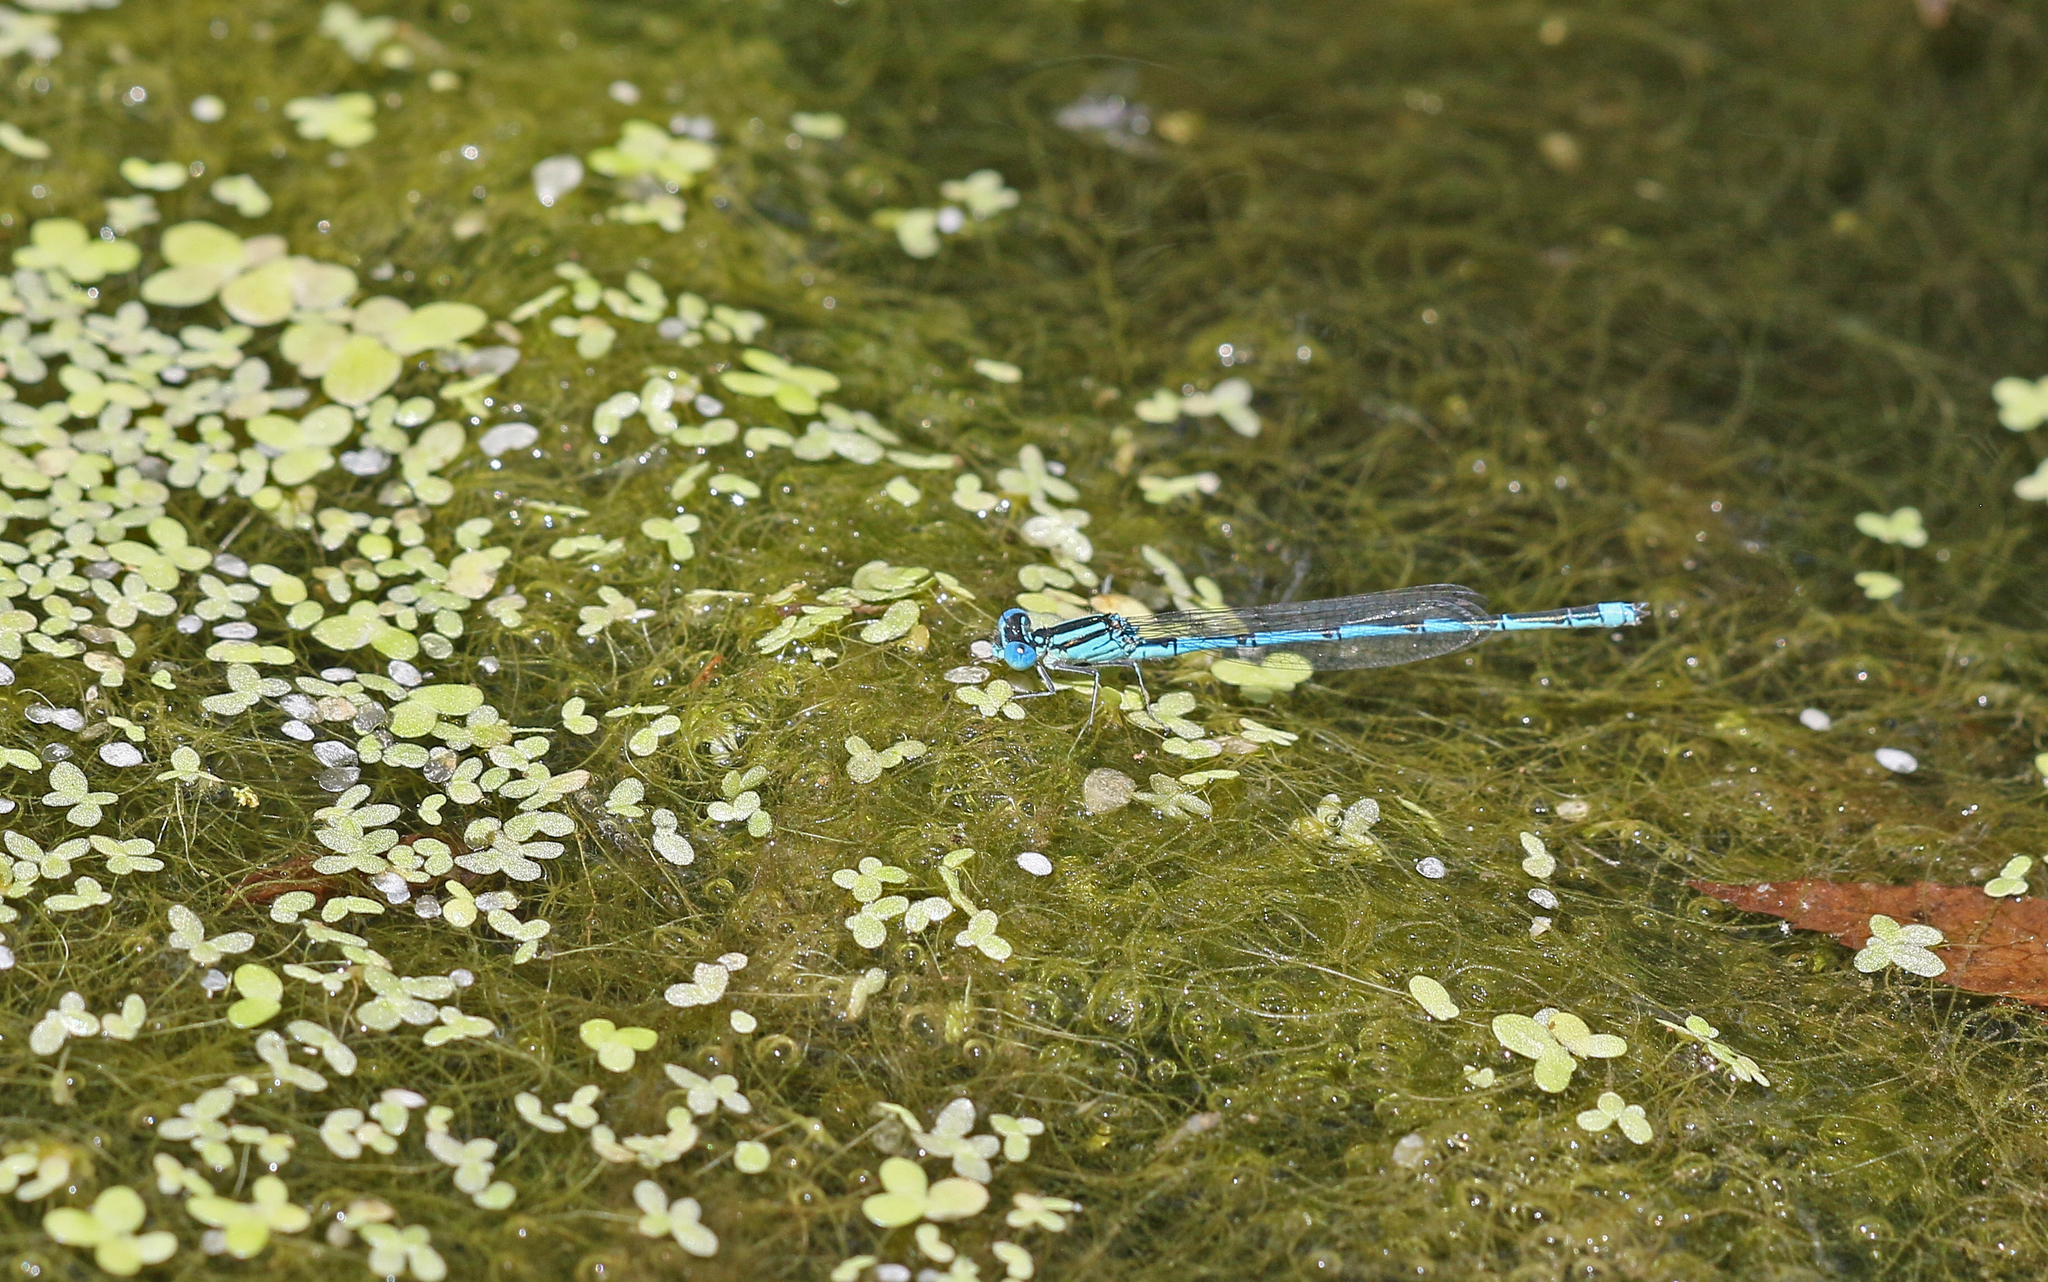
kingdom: Animalia
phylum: Arthropoda
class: Insecta
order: Odonata
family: Coenagrionidae
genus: Erythromma
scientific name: Erythromma lindenii
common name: Blue-eye
